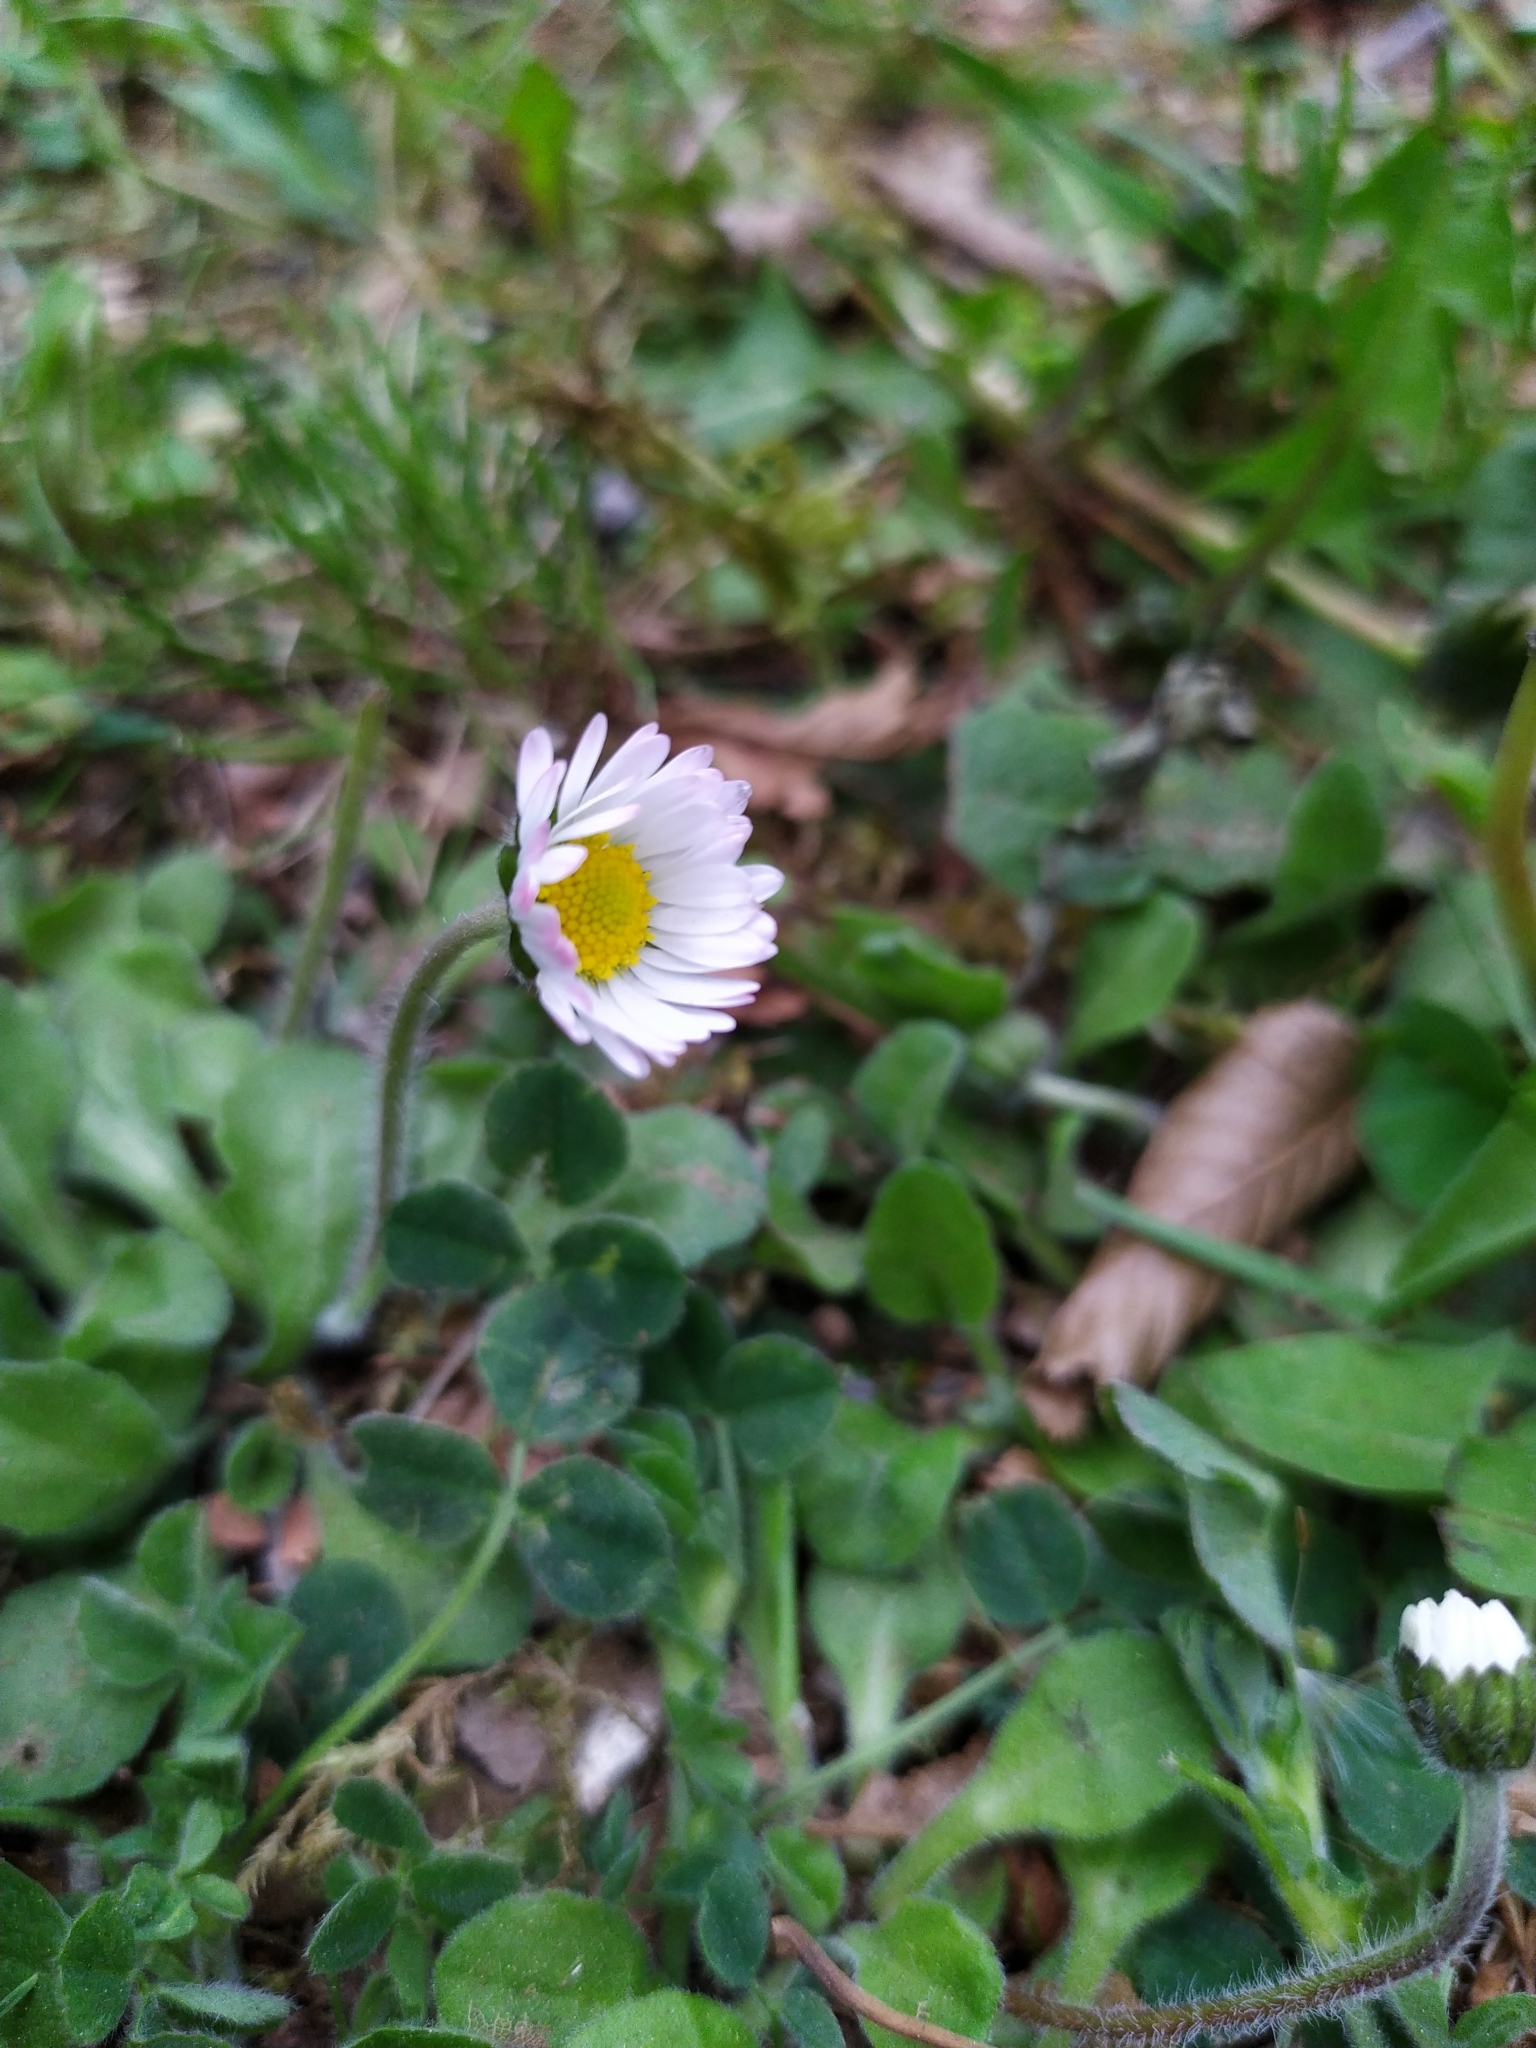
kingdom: Plantae
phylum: Tracheophyta
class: Magnoliopsida
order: Asterales
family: Asteraceae
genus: Bellis
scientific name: Bellis perennis
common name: Lawndaisy
